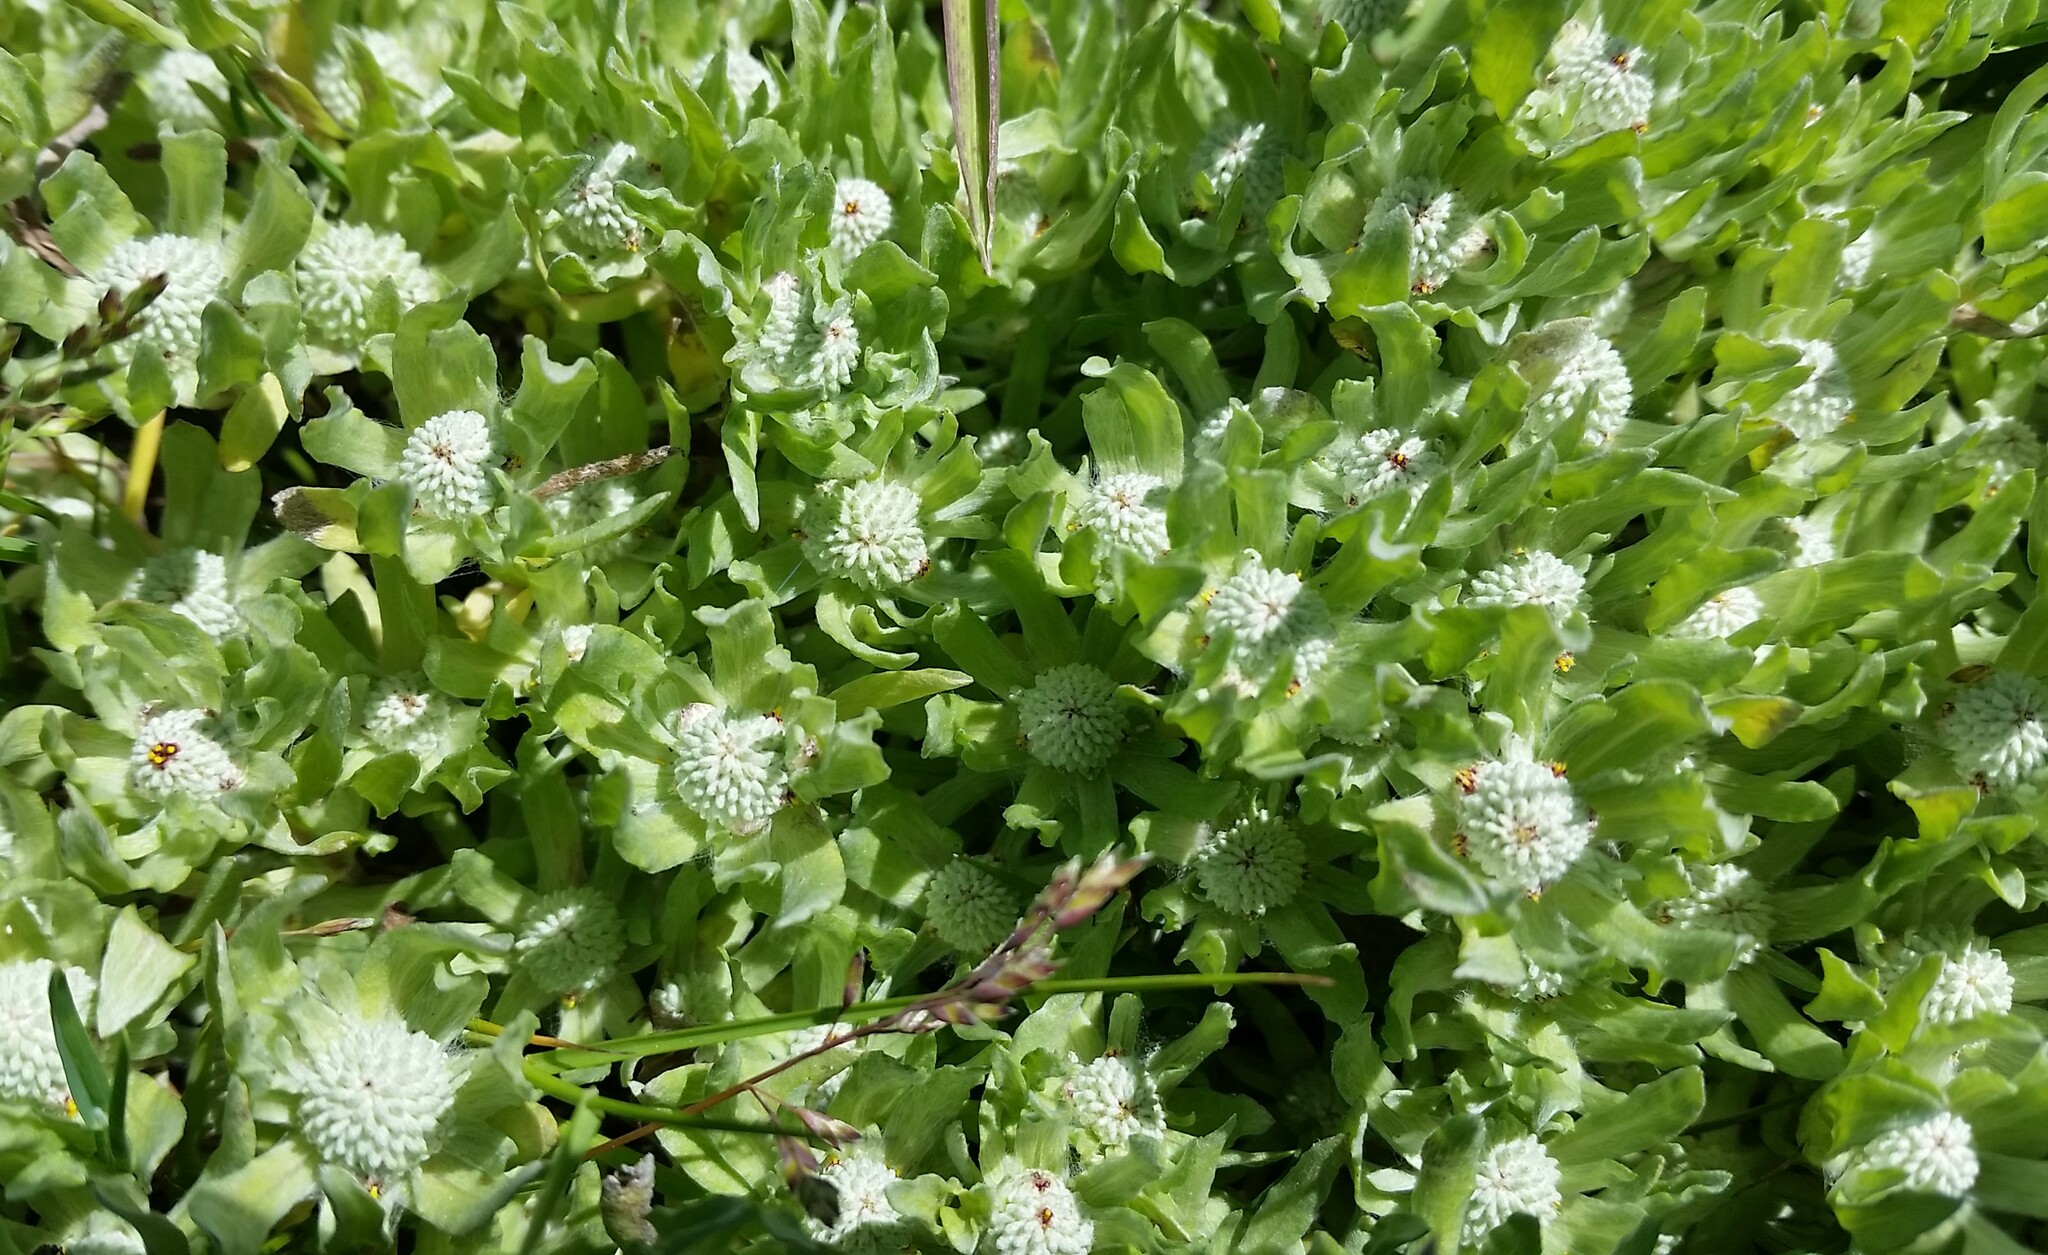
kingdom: Plantae
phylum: Tracheophyta
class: Magnoliopsida
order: Asterales
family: Asteraceae
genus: Psilocarphus
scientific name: Psilocarphus brevissimus
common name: Dwarf woollyheads
